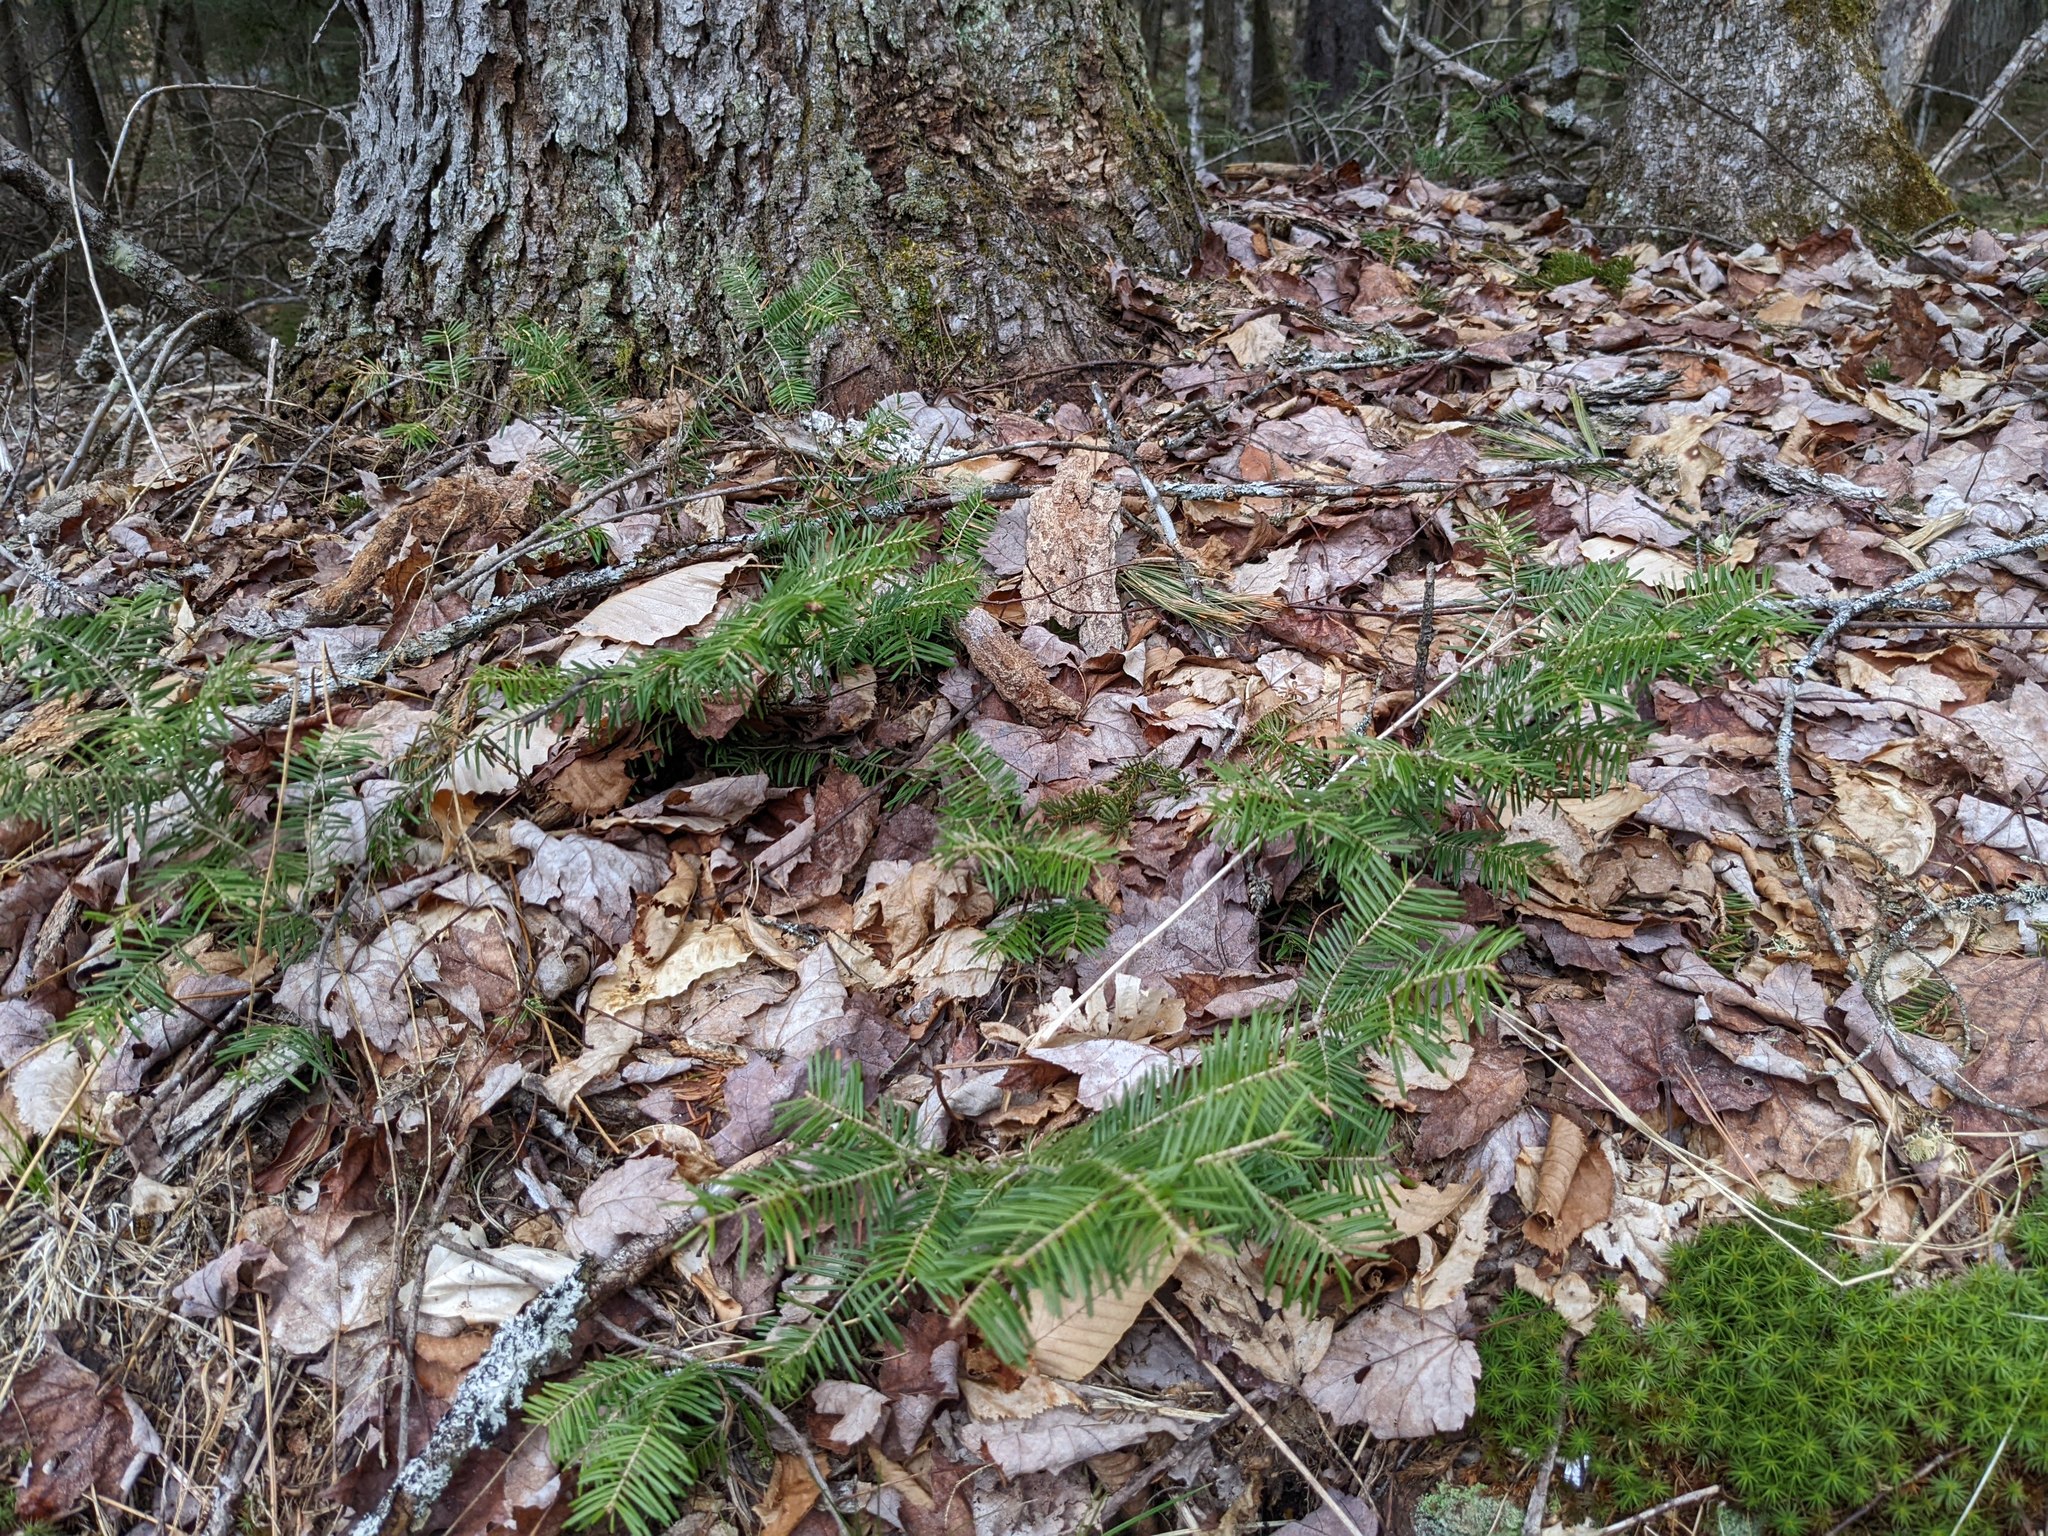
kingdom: Plantae
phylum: Tracheophyta
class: Pinopsida
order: Pinales
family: Pinaceae
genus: Abies
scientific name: Abies balsamea
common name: Balsam fir
